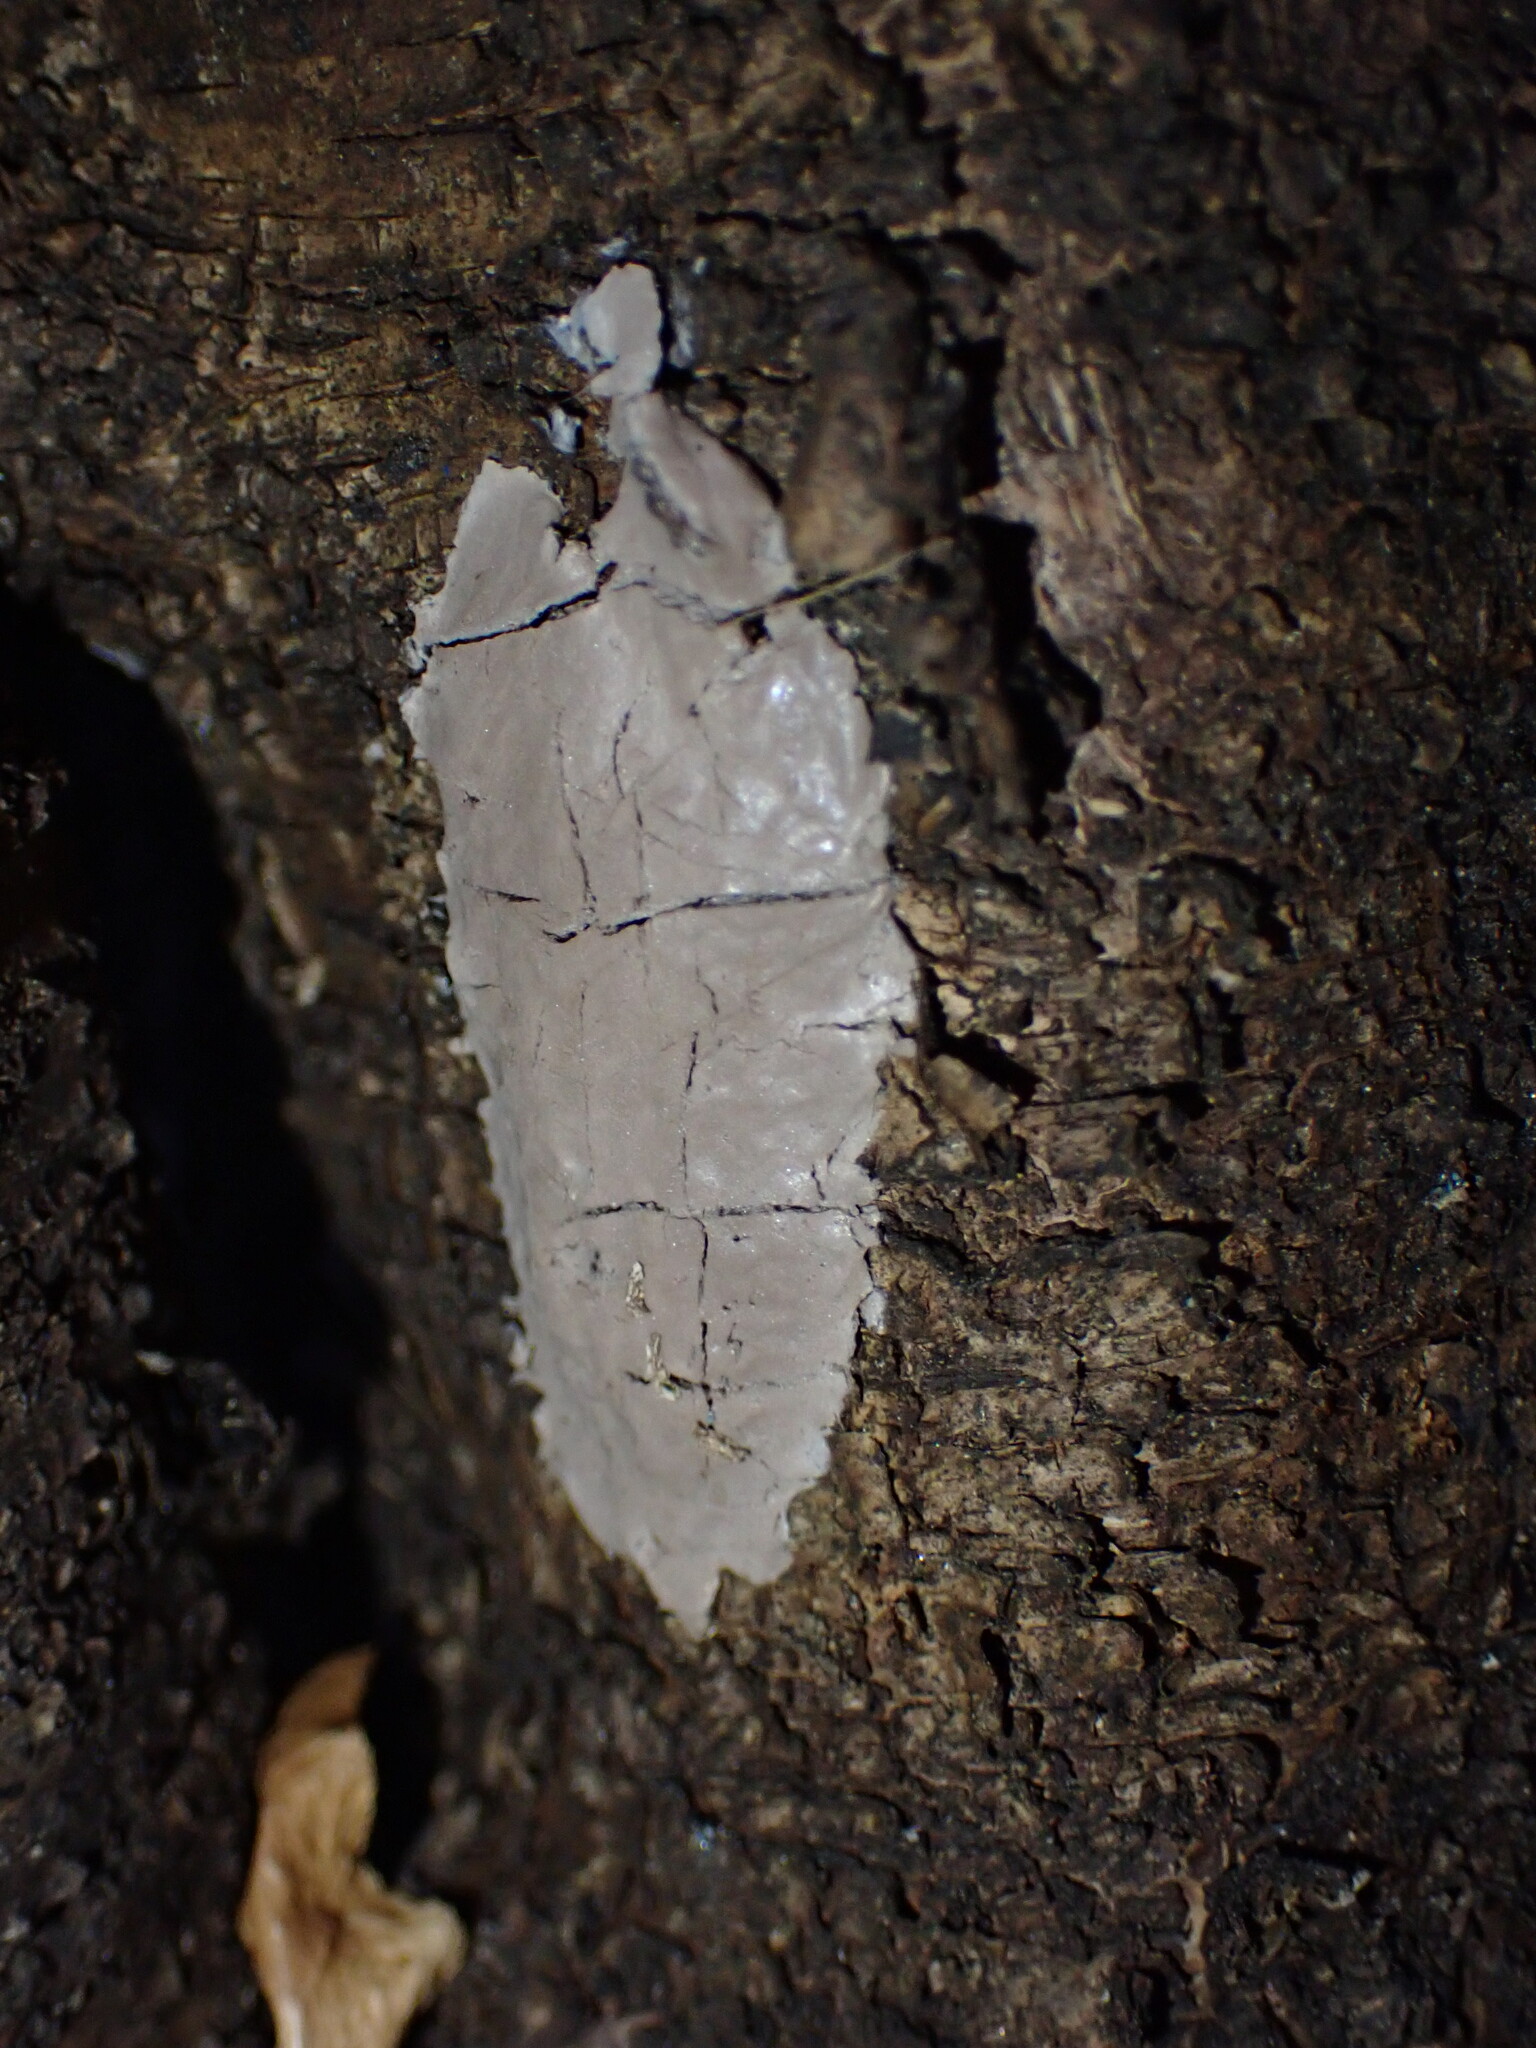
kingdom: Animalia
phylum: Arthropoda
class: Insecta
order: Hemiptera
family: Fulgoridae
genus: Lycorma
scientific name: Lycorma delicatula
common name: Spotted lanternfly
